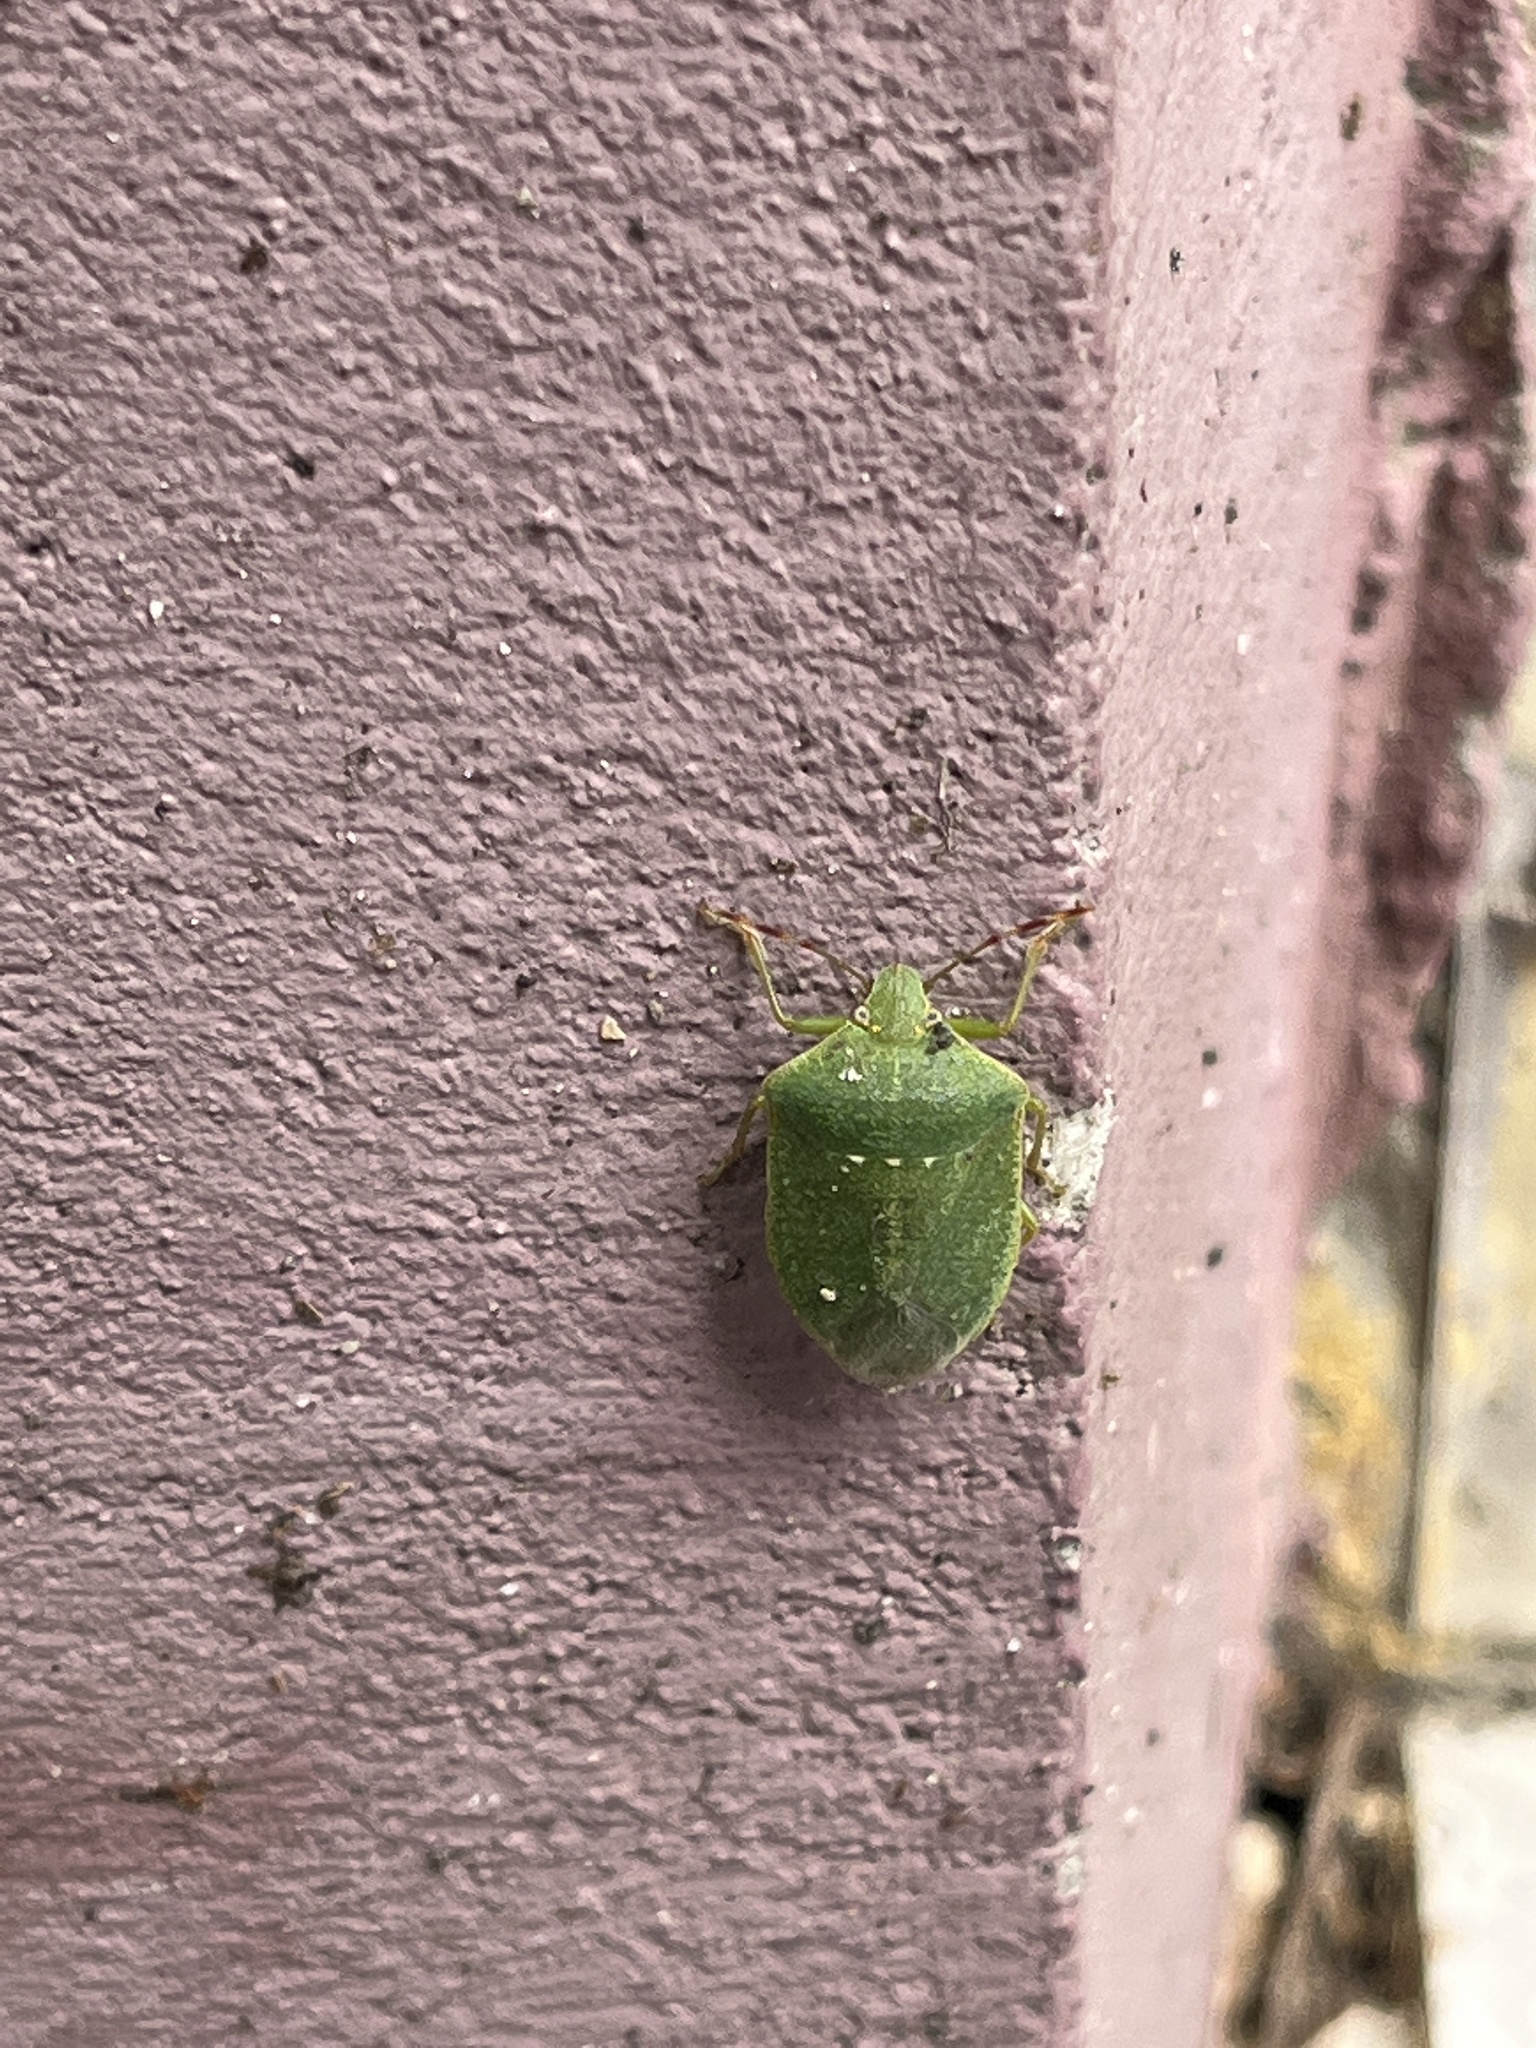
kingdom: Animalia
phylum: Arthropoda
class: Insecta
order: Hemiptera
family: Pentatomidae
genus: Nezara
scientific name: Nezara viridula
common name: Southern green stink bug
